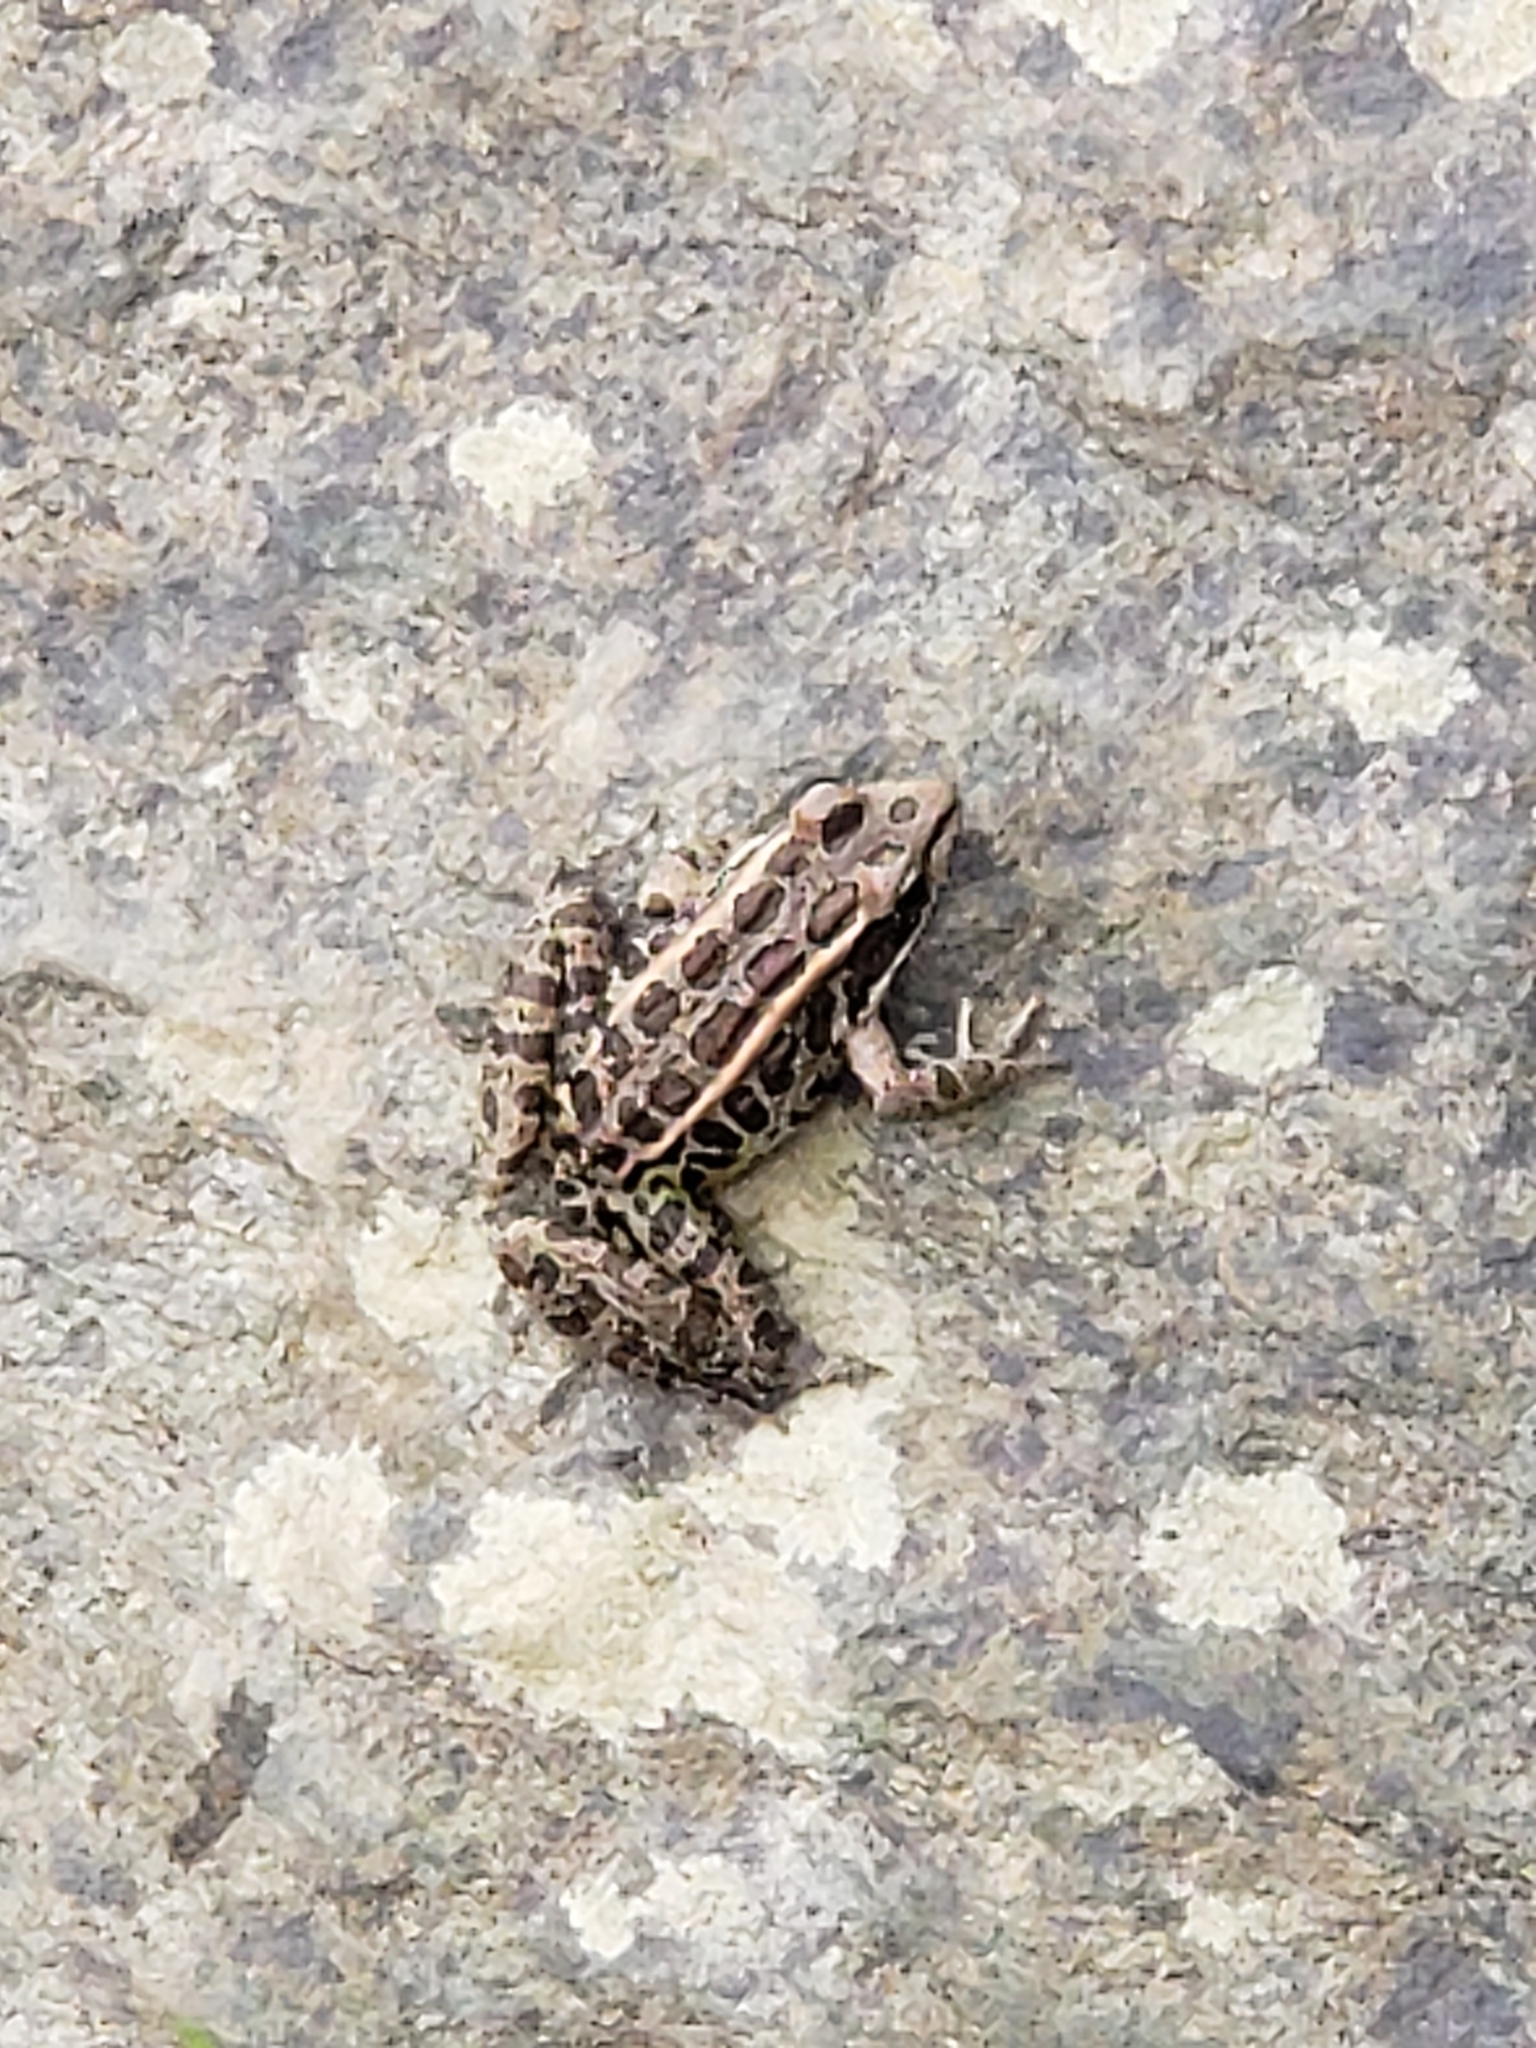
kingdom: Animalia
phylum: Chordata
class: Amphibia
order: Anura
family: Ranidae
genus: Lithobates
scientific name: Lithobates palustris
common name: Pickerel frog
